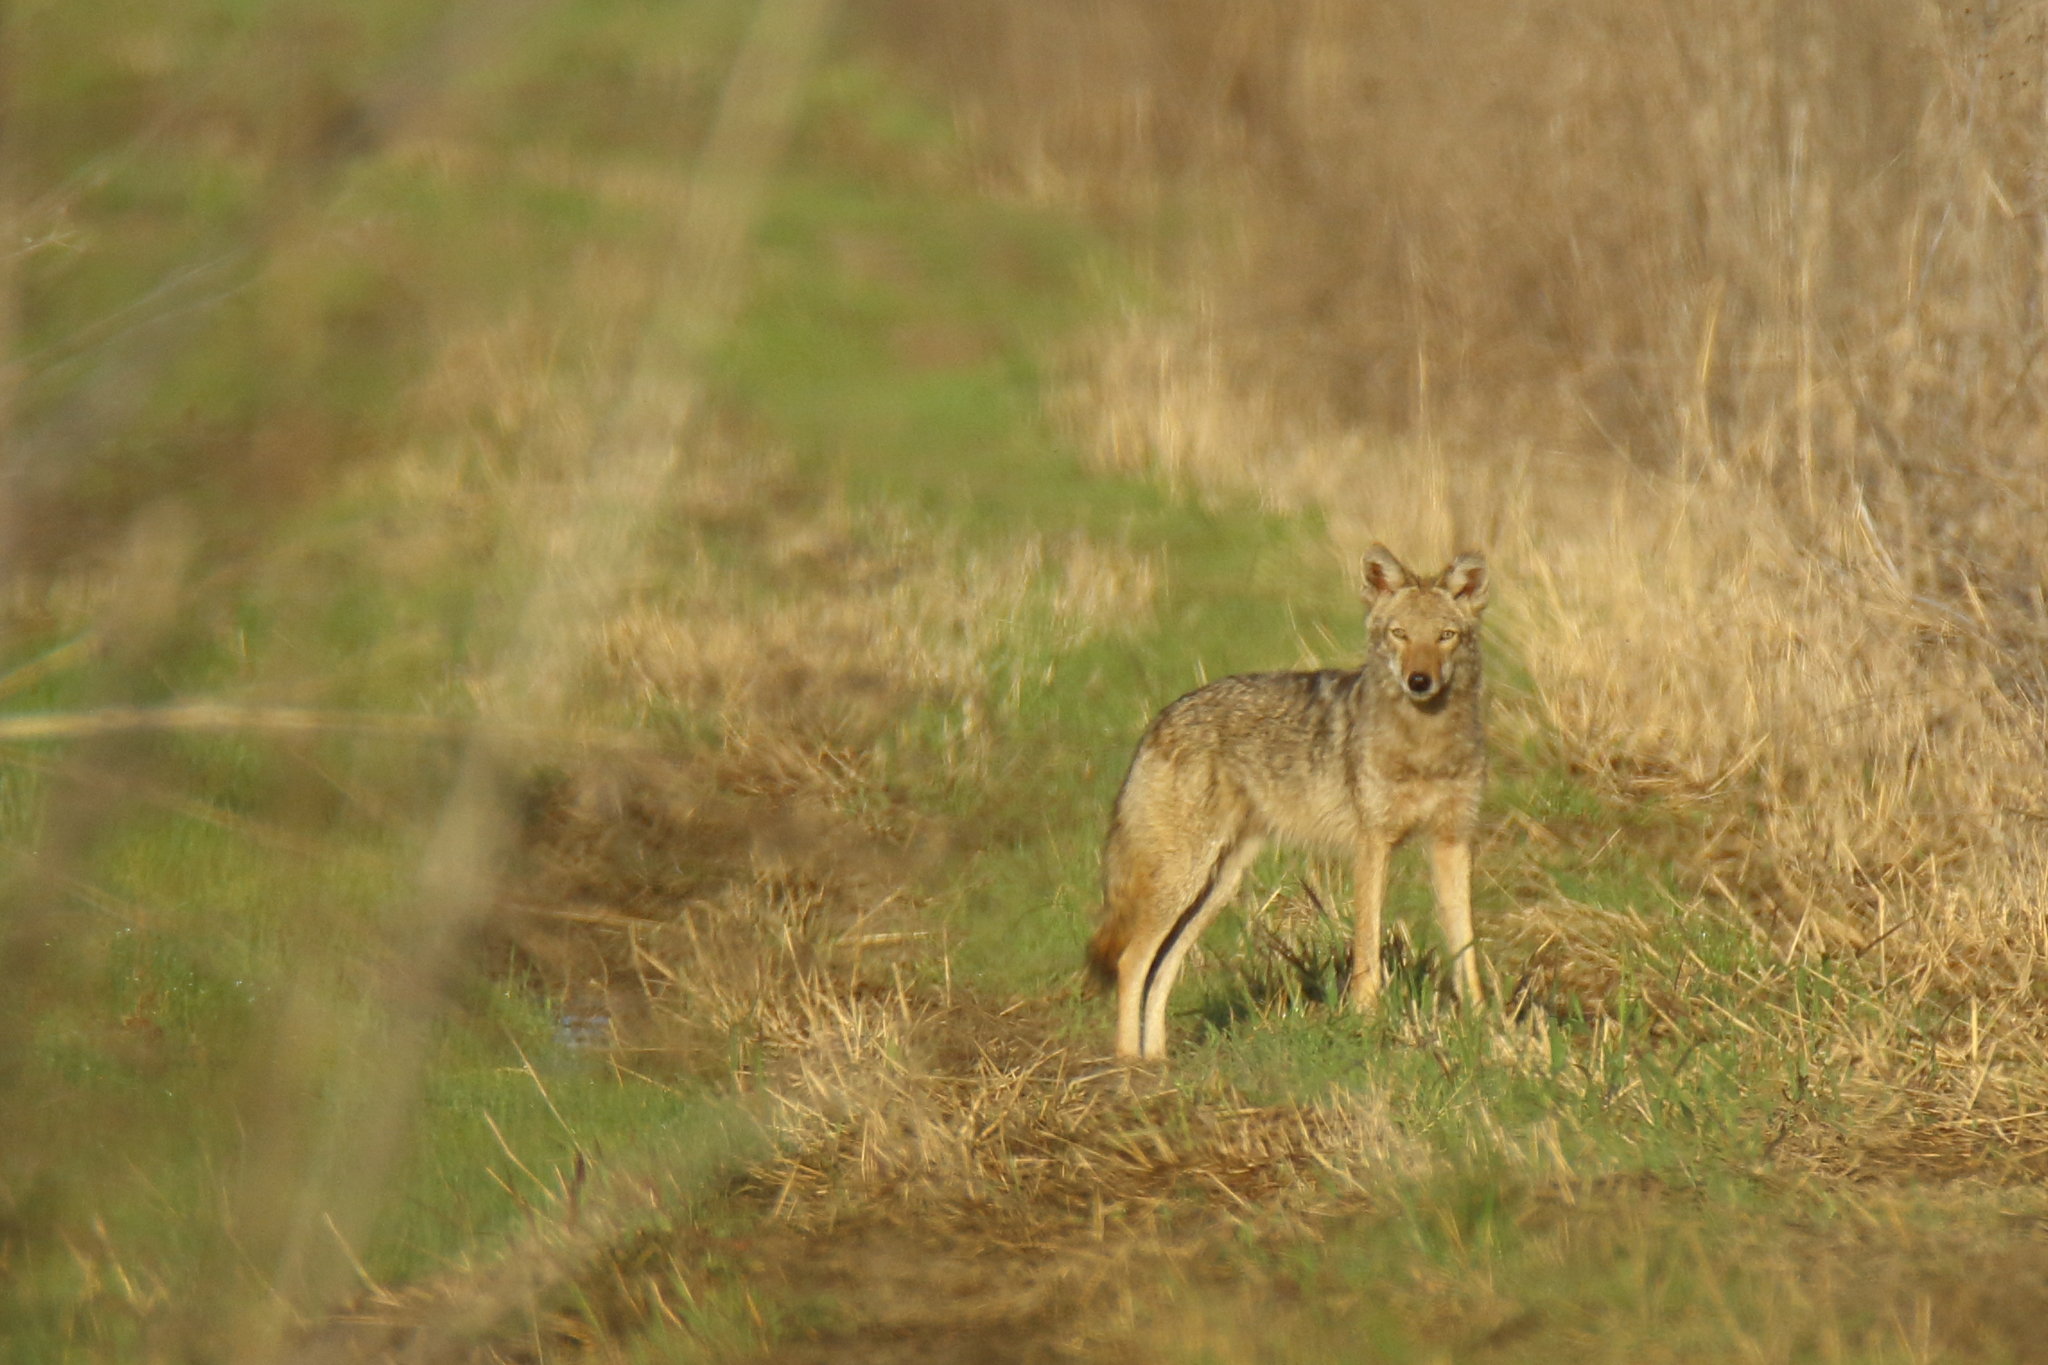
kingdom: Animalia
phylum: Chordata
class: Mammalia
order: Carnivora
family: Canidae
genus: Canis
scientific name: Canis latrans
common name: Coyote
